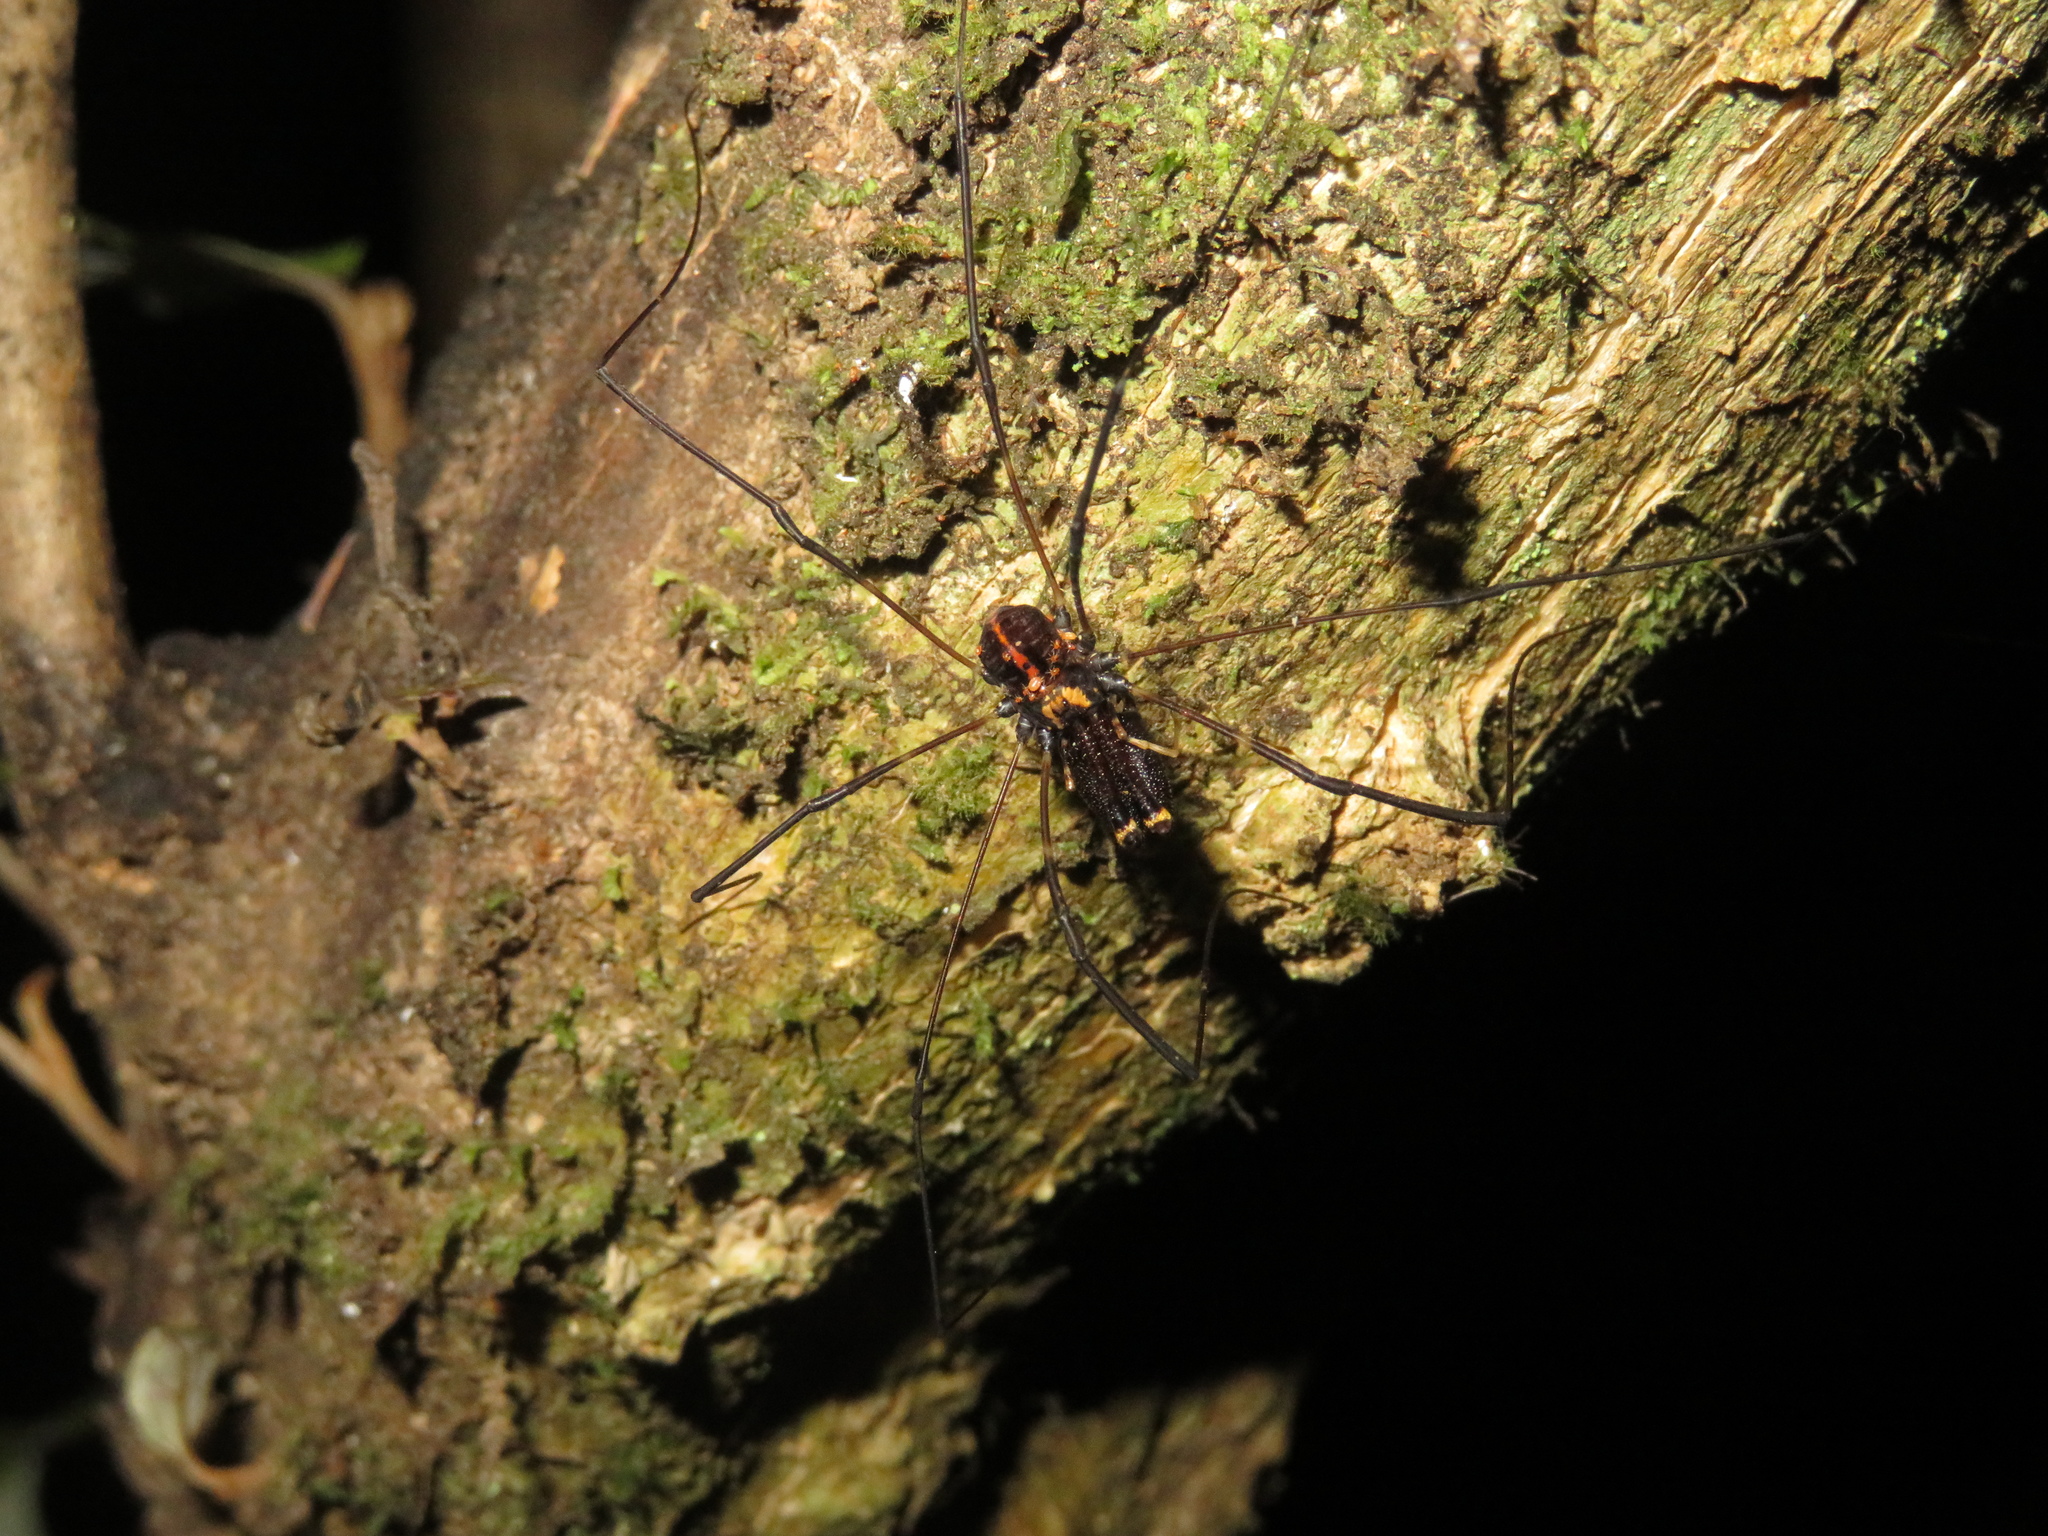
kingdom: Animalia
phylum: Arthropoda
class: Arachnida
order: Opiliones
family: Neopilionidae
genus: Forsteropsalis
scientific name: Forsteropsalis pureora
